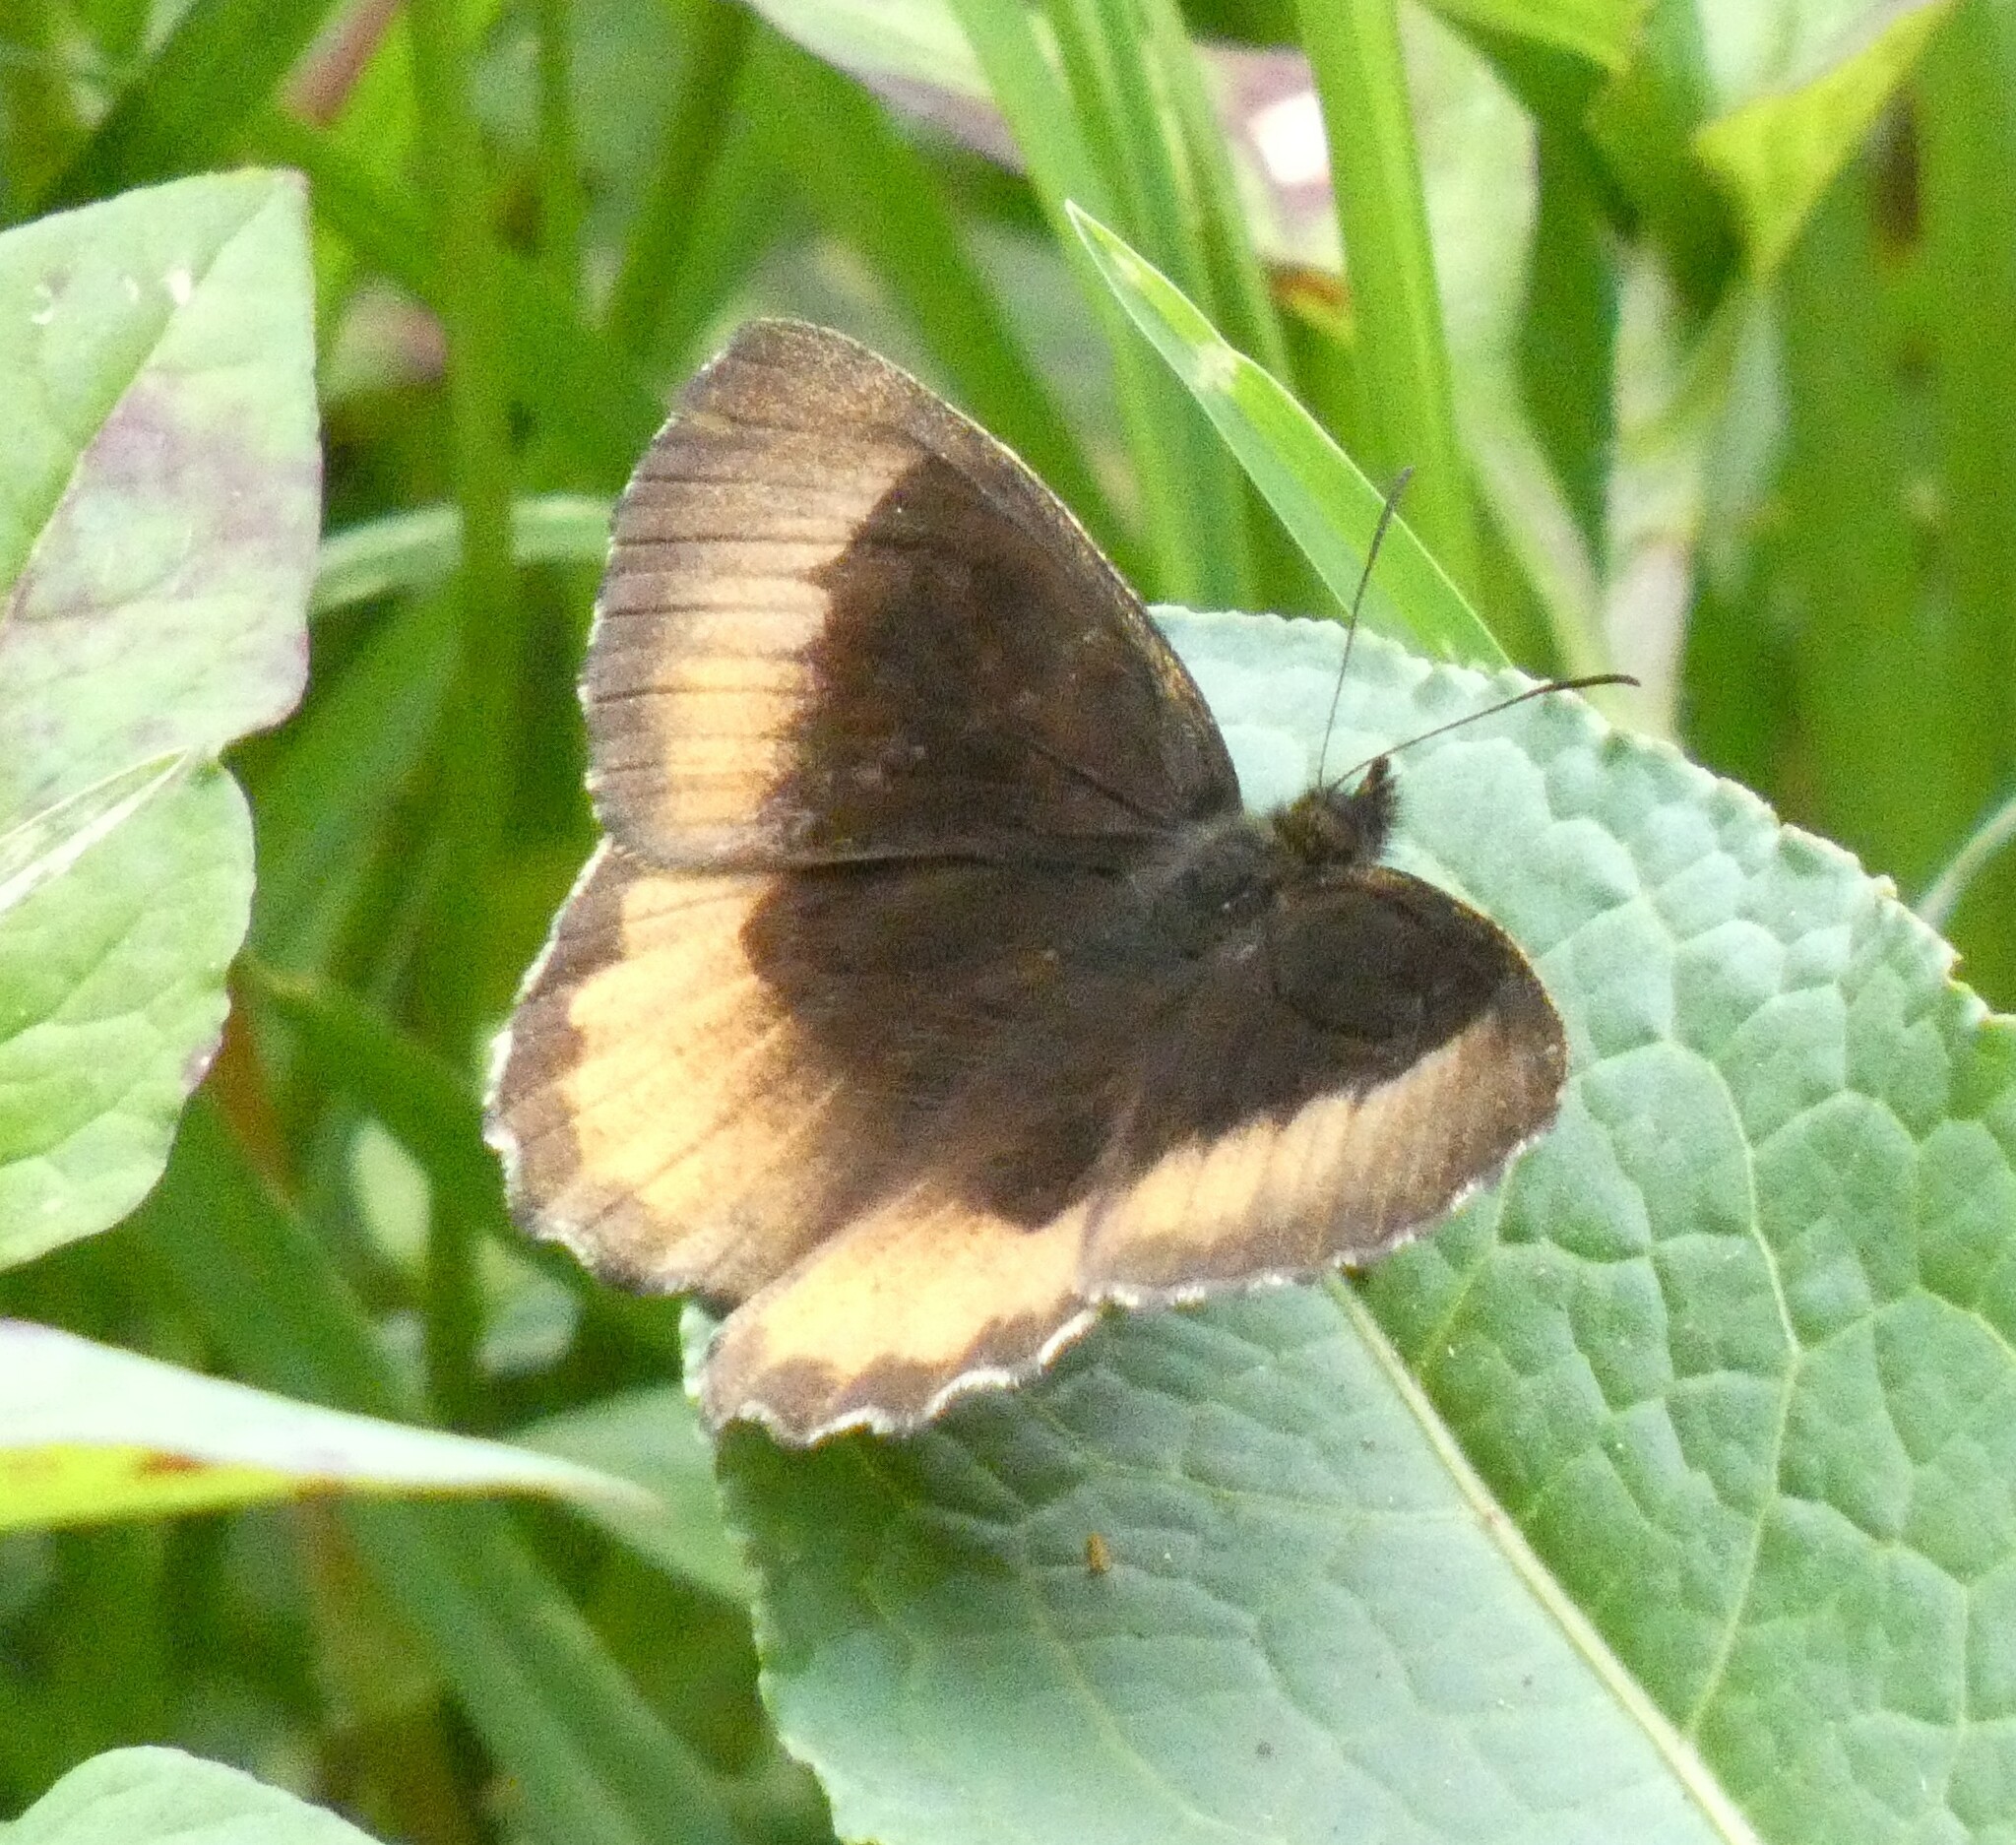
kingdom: Animalia
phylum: Arthropoda
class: Insecta
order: Lepidoptera
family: Nymphalidae
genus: Pedaliodes
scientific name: Pedaliodes phaea
